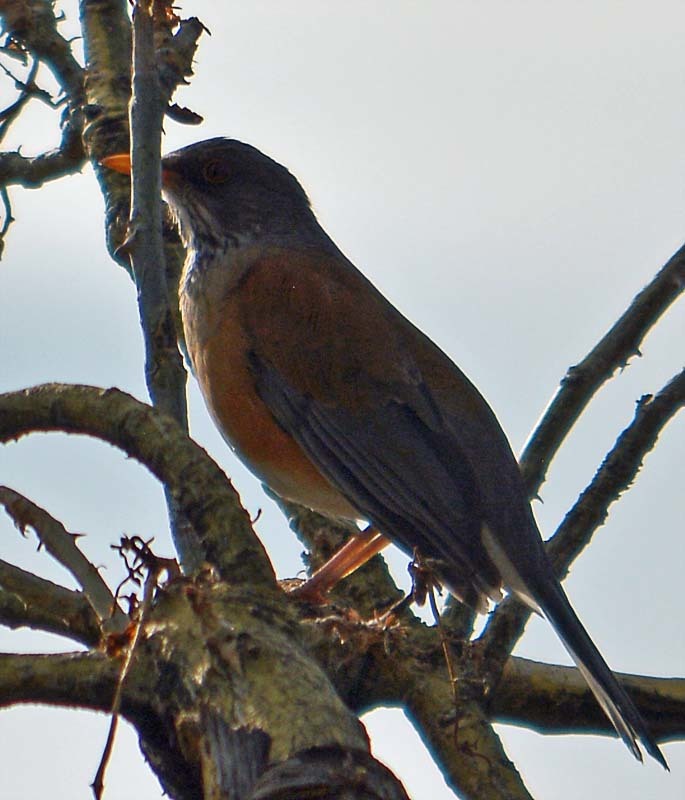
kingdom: Animalia
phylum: Chordata
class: Aves
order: Passeriformes
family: Turdidae
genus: Turdus
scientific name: Turdus rufopalliatus
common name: Rufous-backed robin
